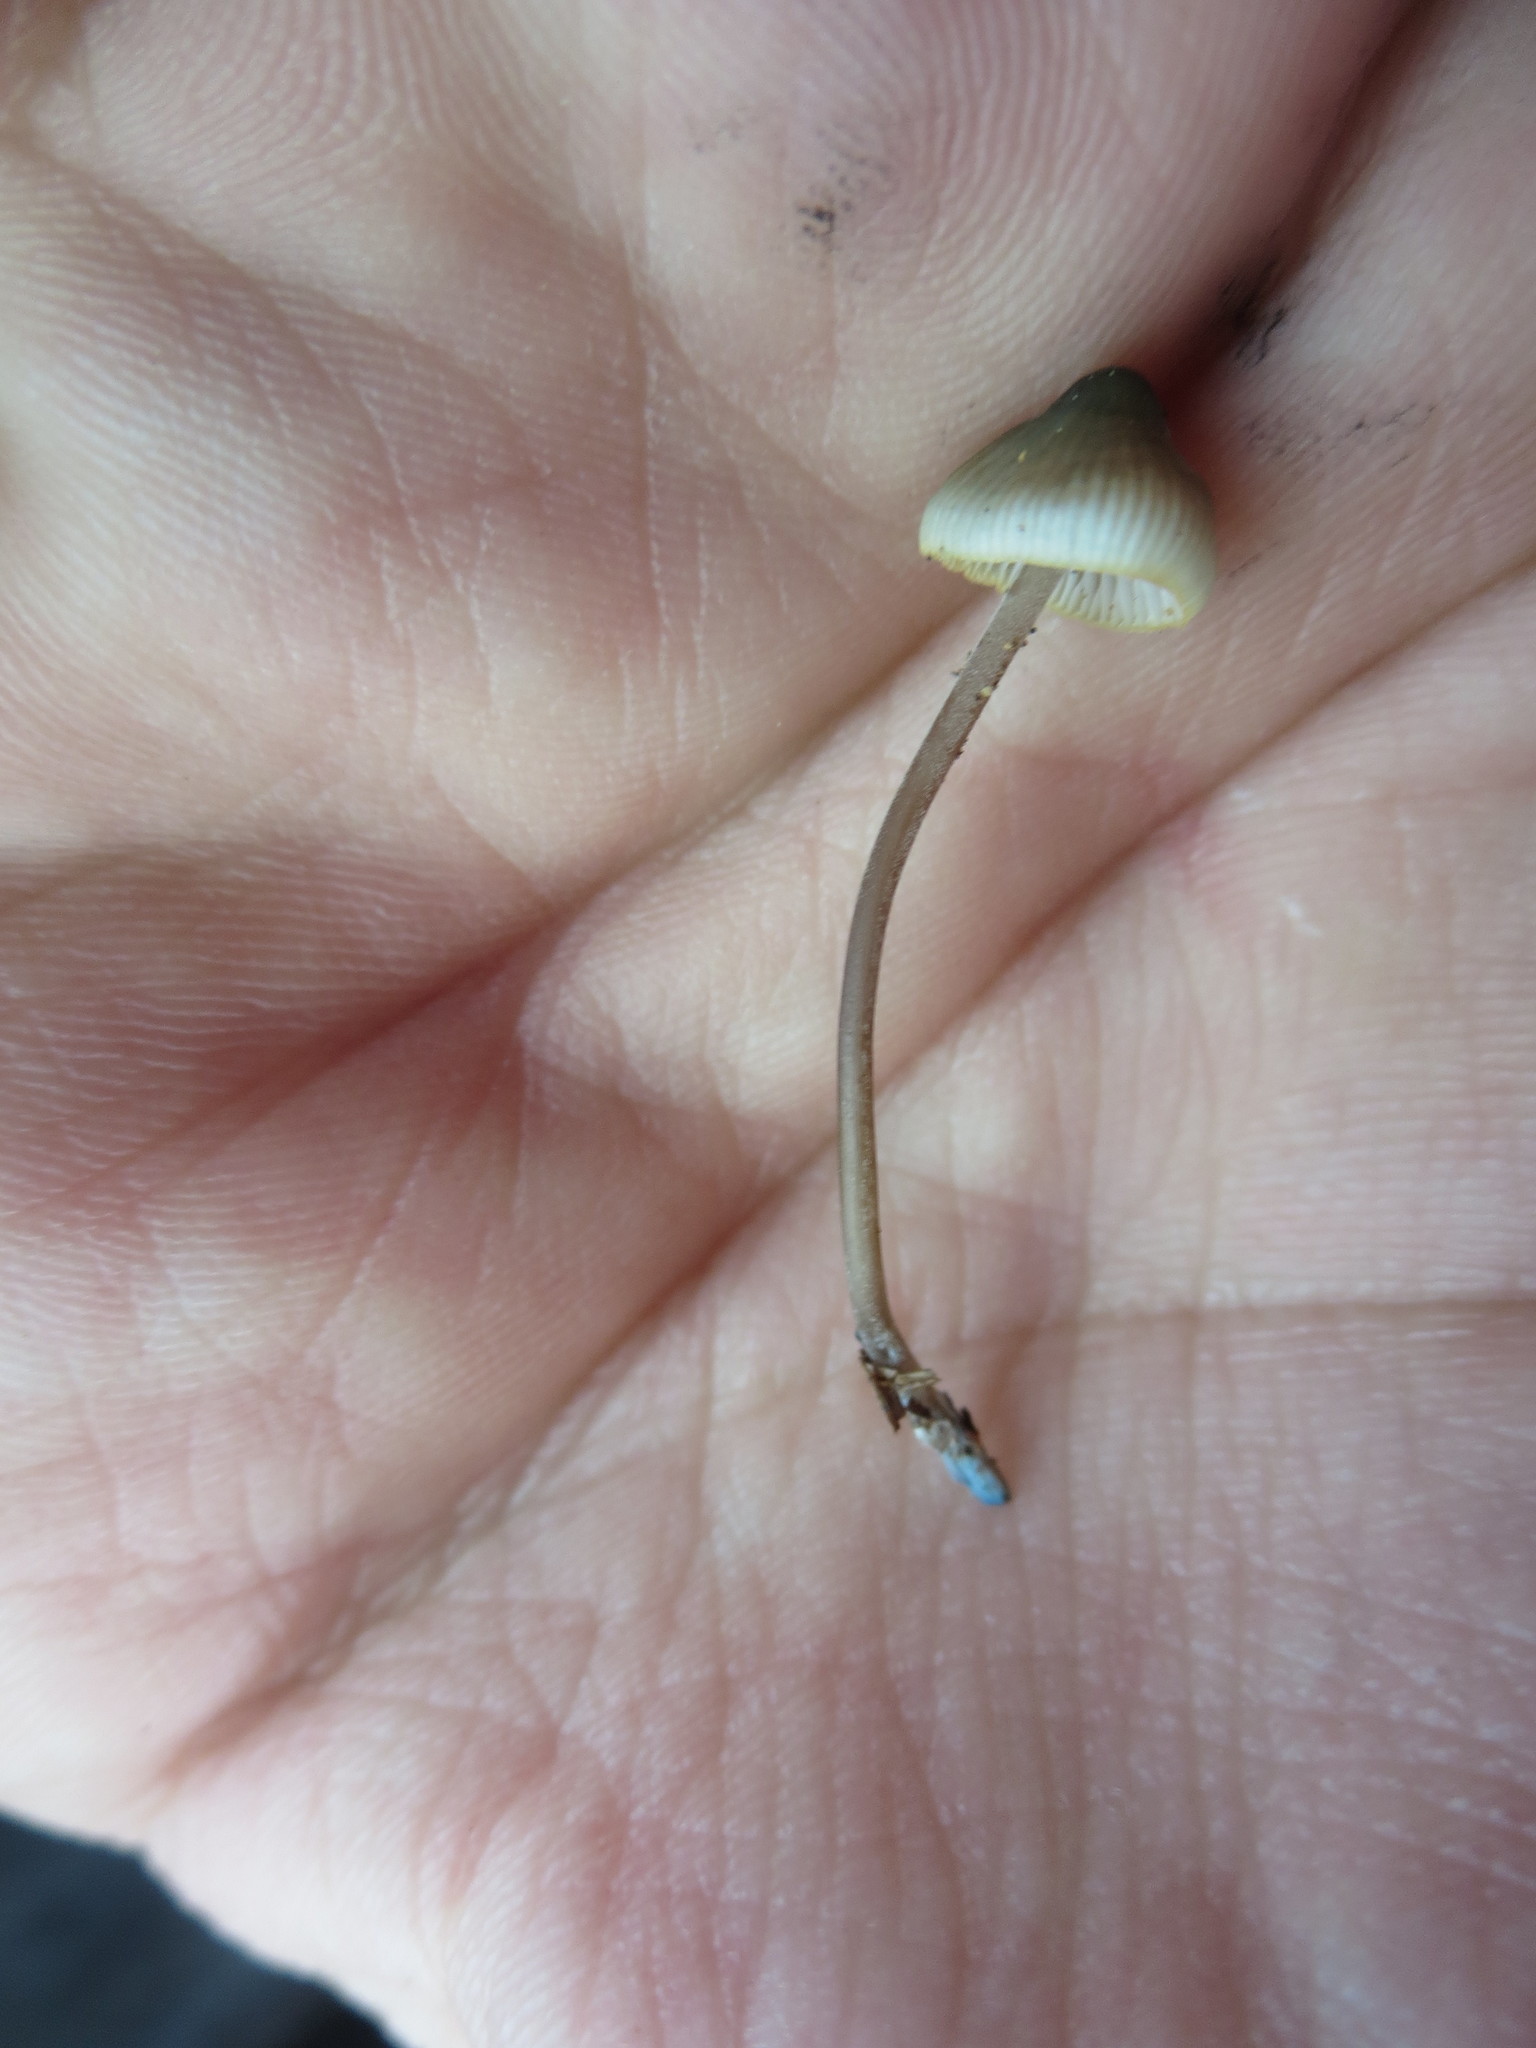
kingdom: Fungi
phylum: Basidiomycota
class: Agaricomycetes
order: Agaricales
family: Mycenaceae
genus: Mycena
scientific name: Mycena amicta
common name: Coldfoot bonnet
